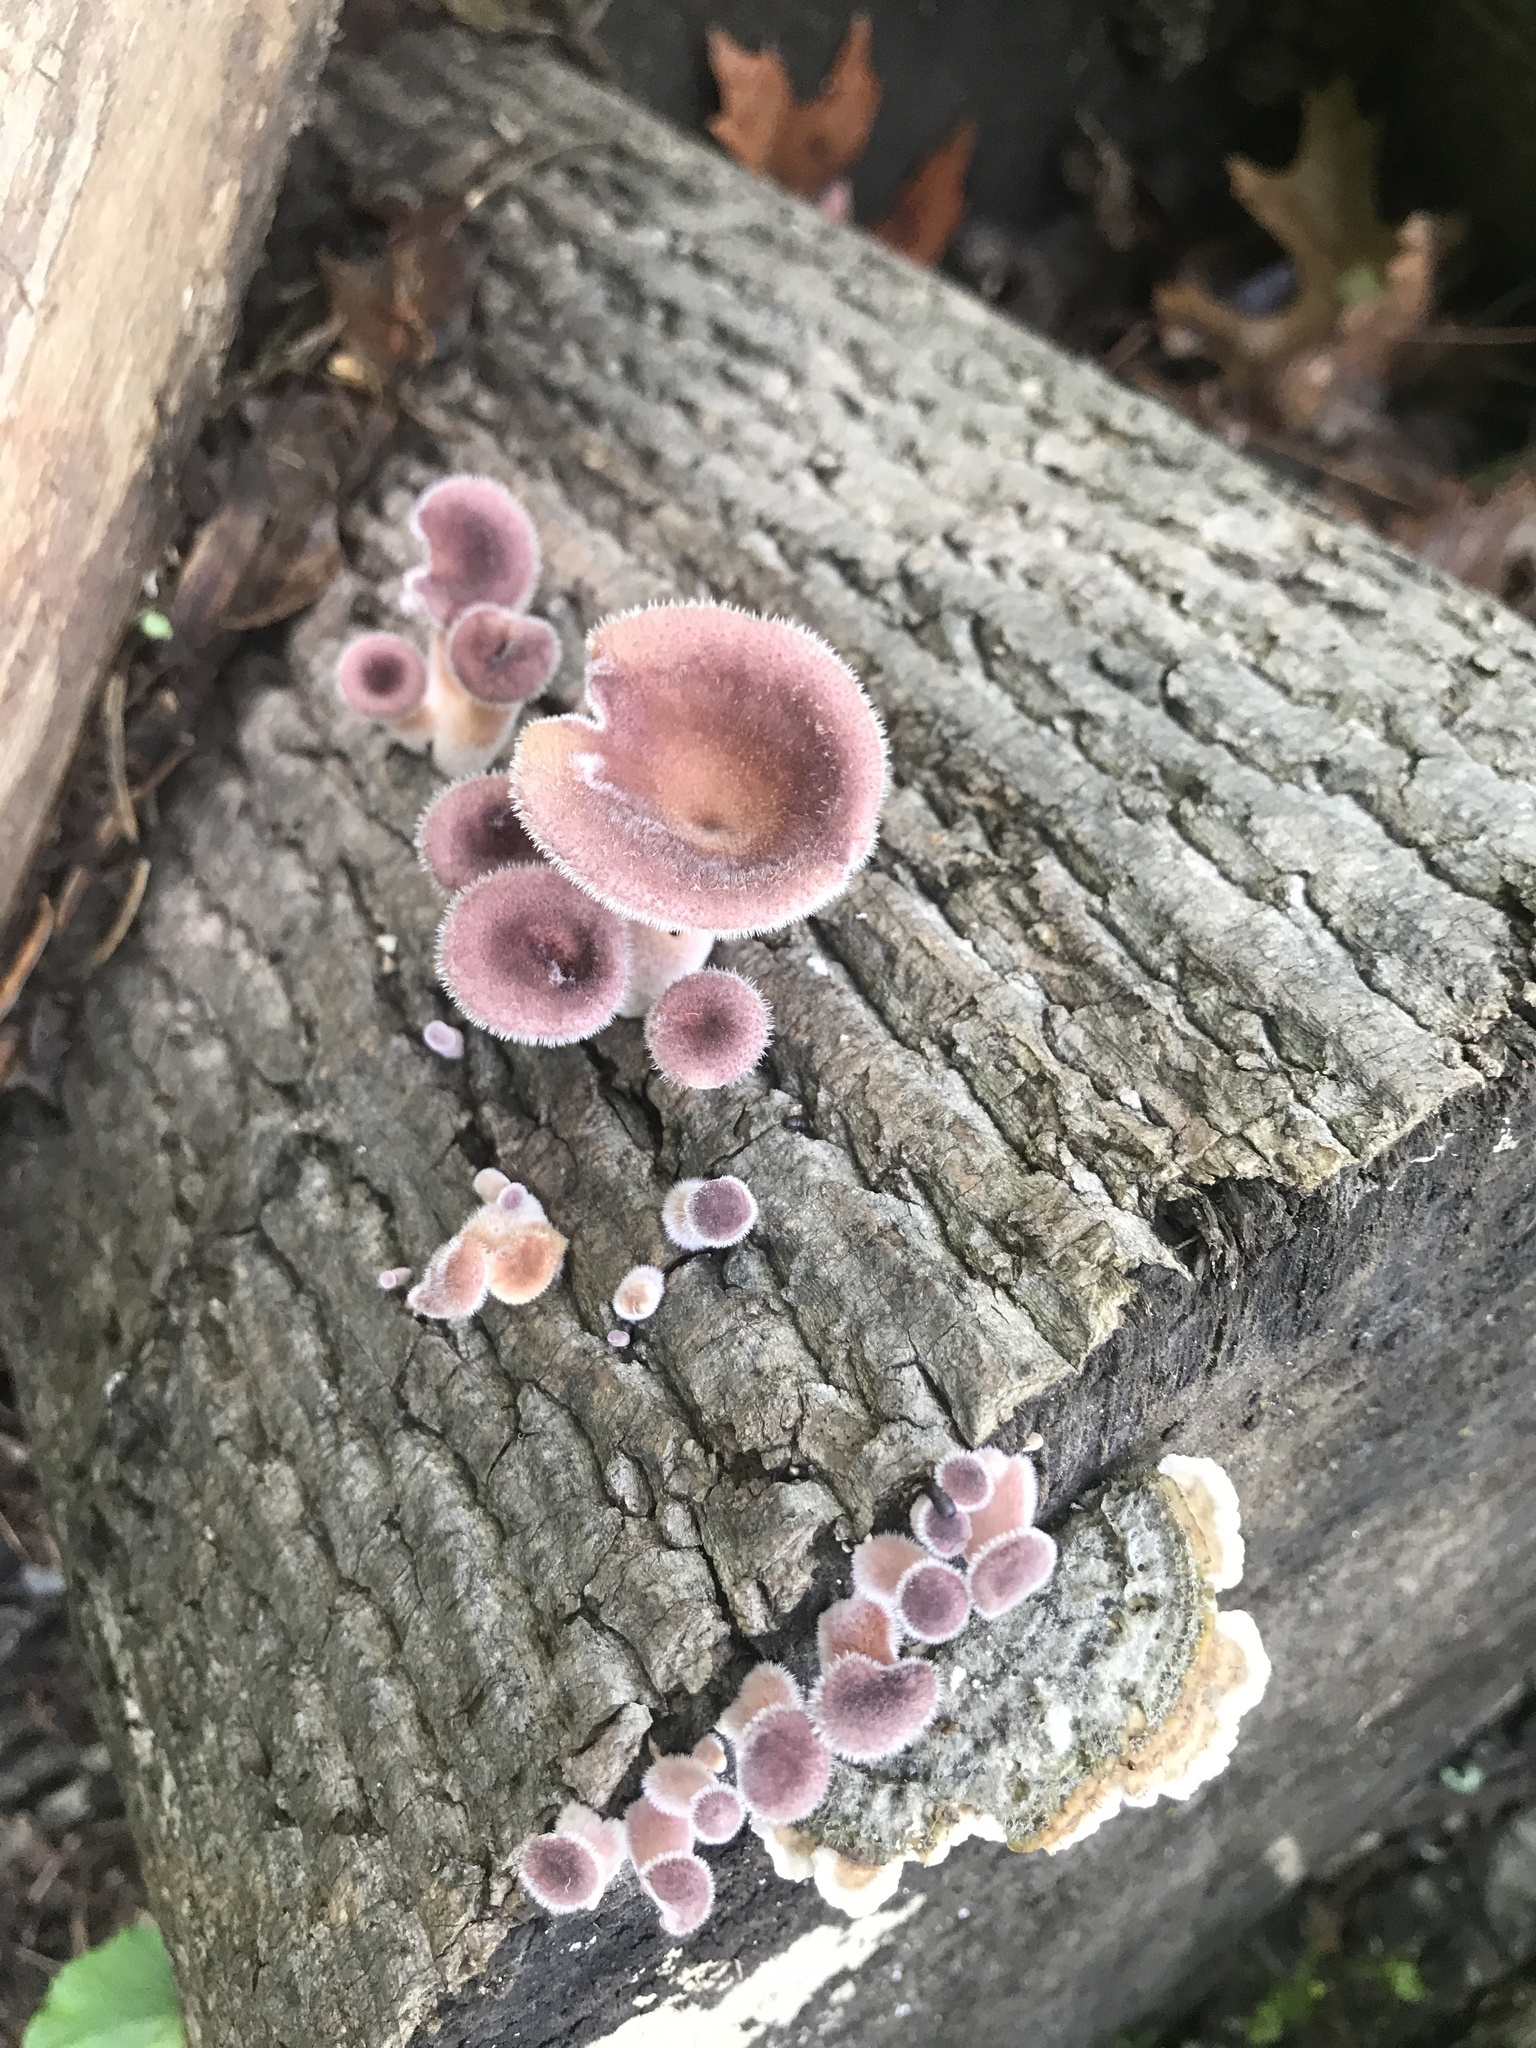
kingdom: Fungi
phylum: Basidiomycota
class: Agaricomycetes
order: Polyporales
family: Panaceae
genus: Panus
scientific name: Panus neostrigosus
